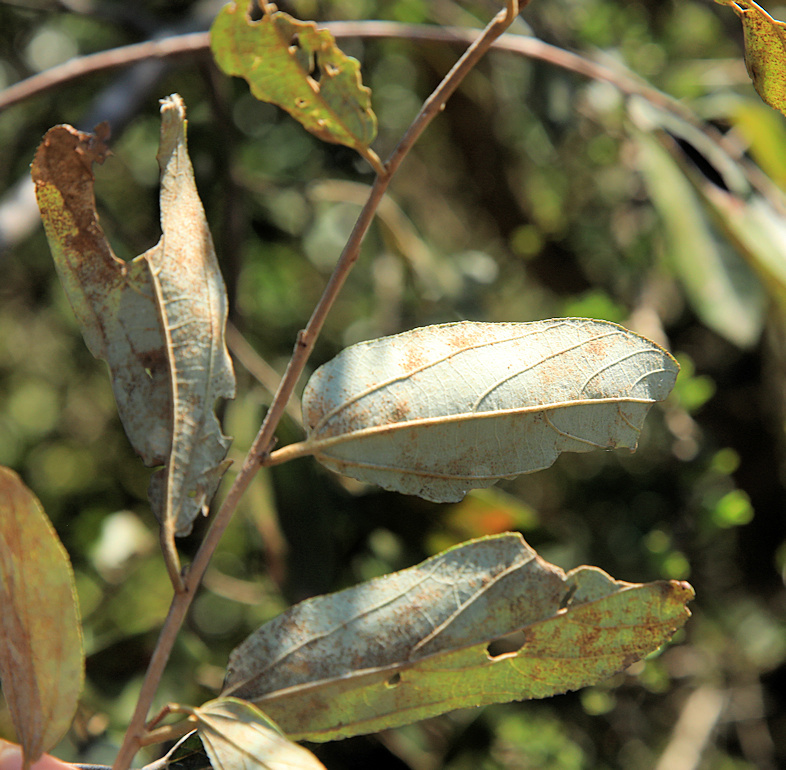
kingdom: Plantae
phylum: Tracheophyta
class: Magnoliopsida
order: Malvales
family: Malvaceae
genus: Grewia
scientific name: Grewia bicolor
